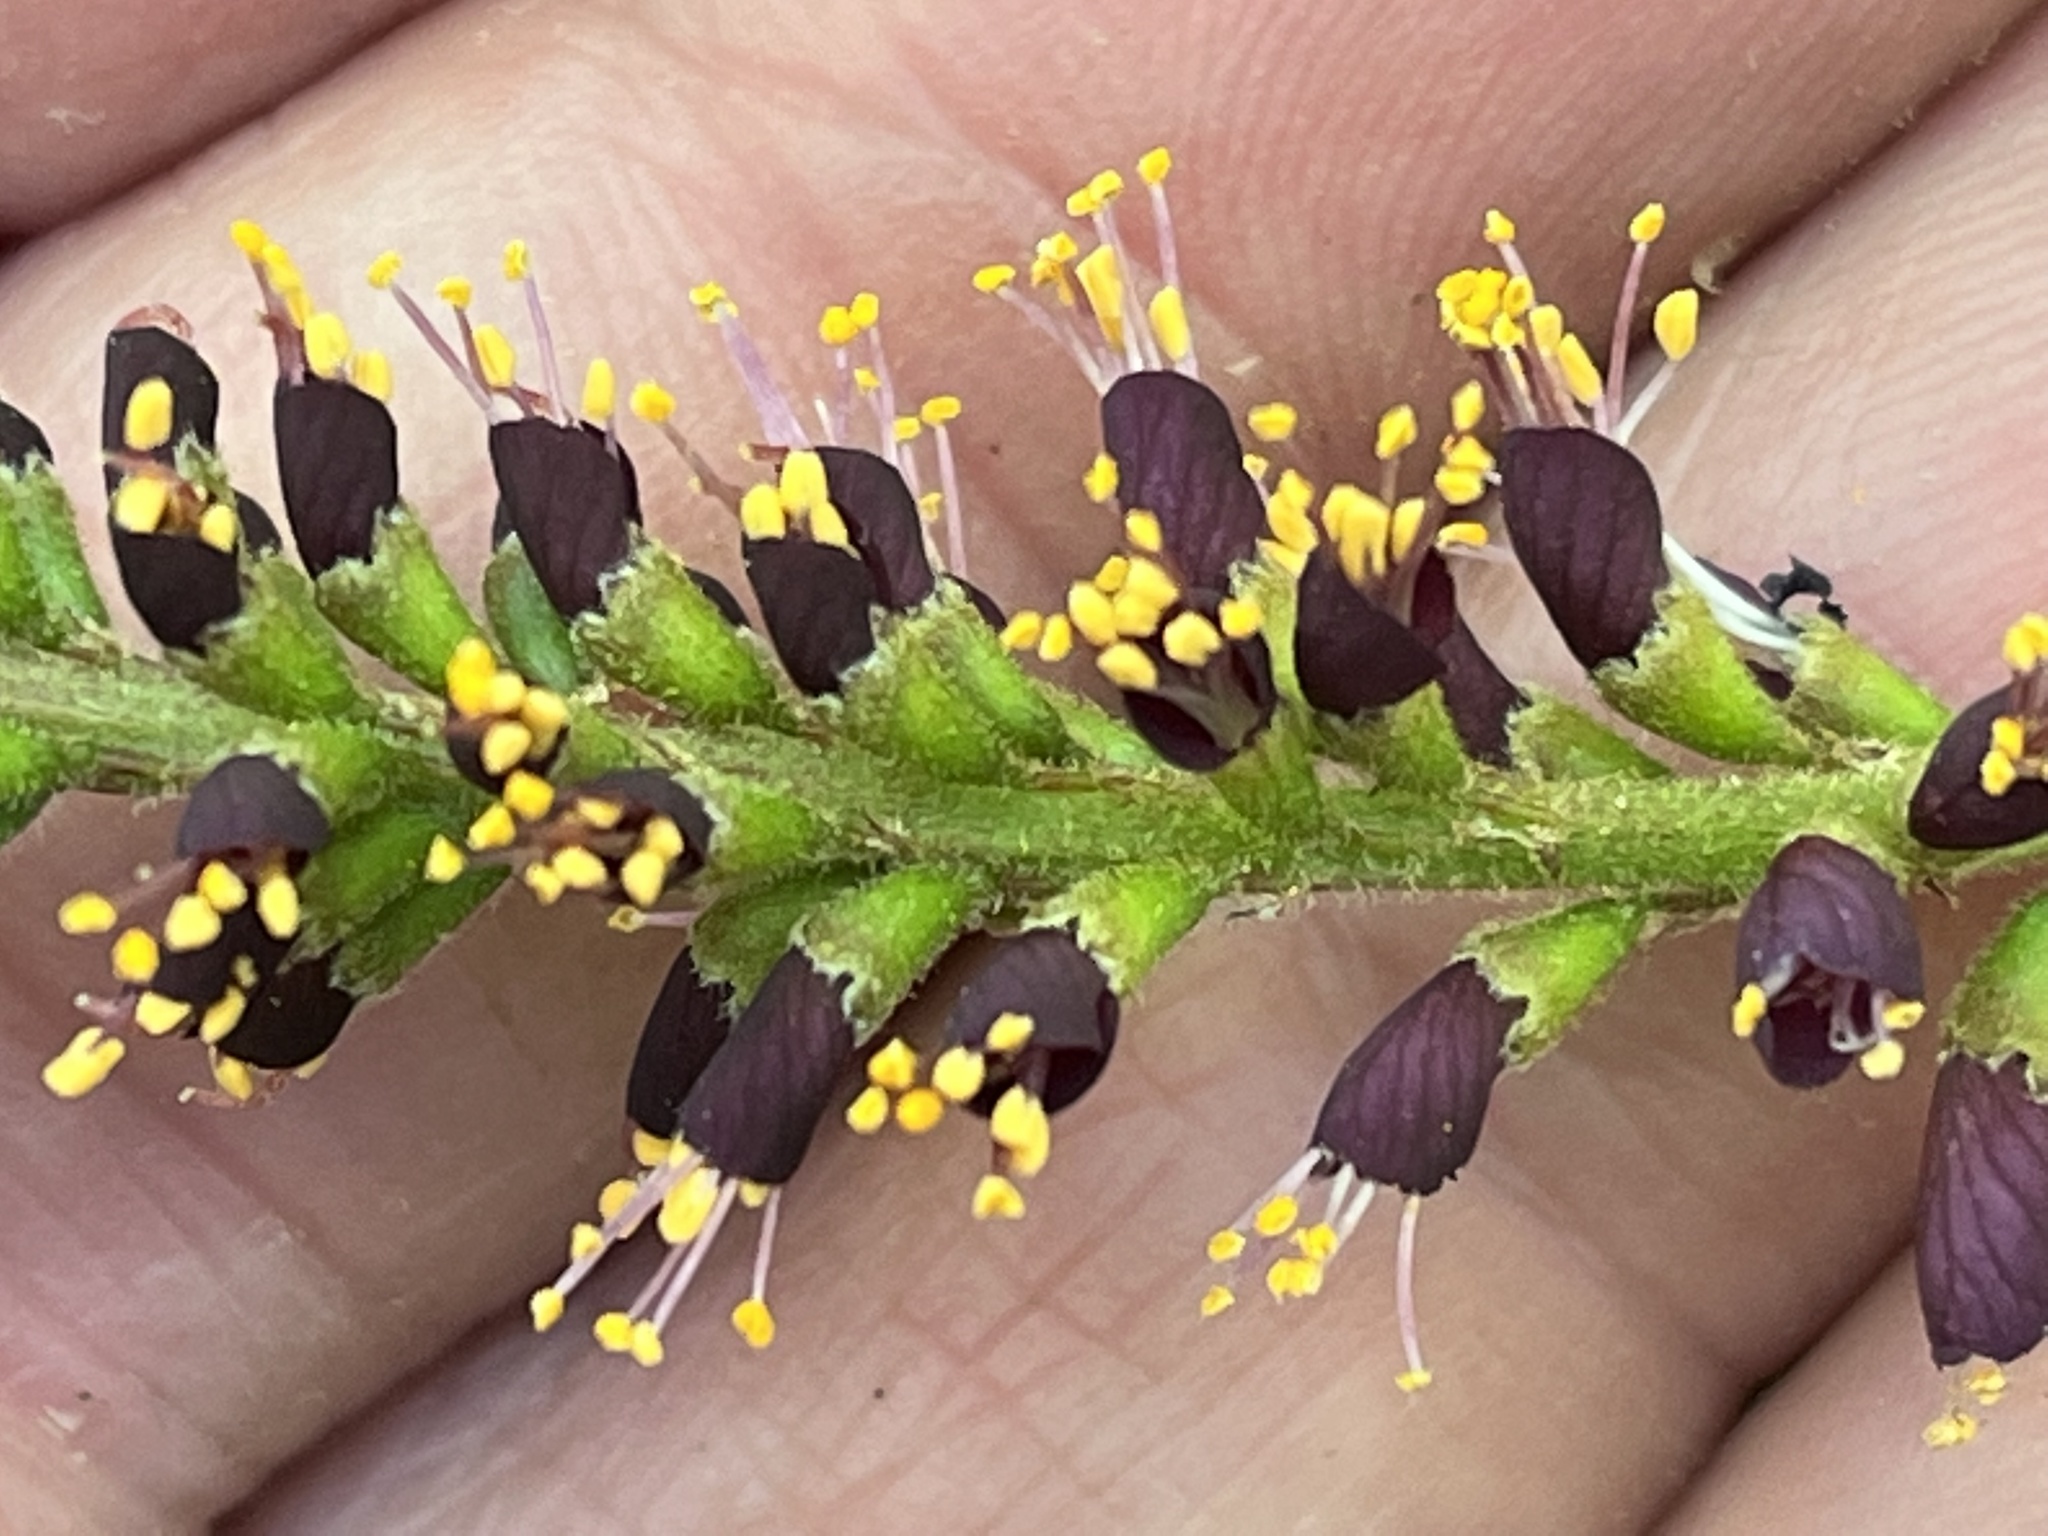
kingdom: Plantae
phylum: Tracheophyta
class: Magnoliopsida
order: Fabales
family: Fabaceae
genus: Amorpha
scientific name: Amorpha fruticosa
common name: False indigo
